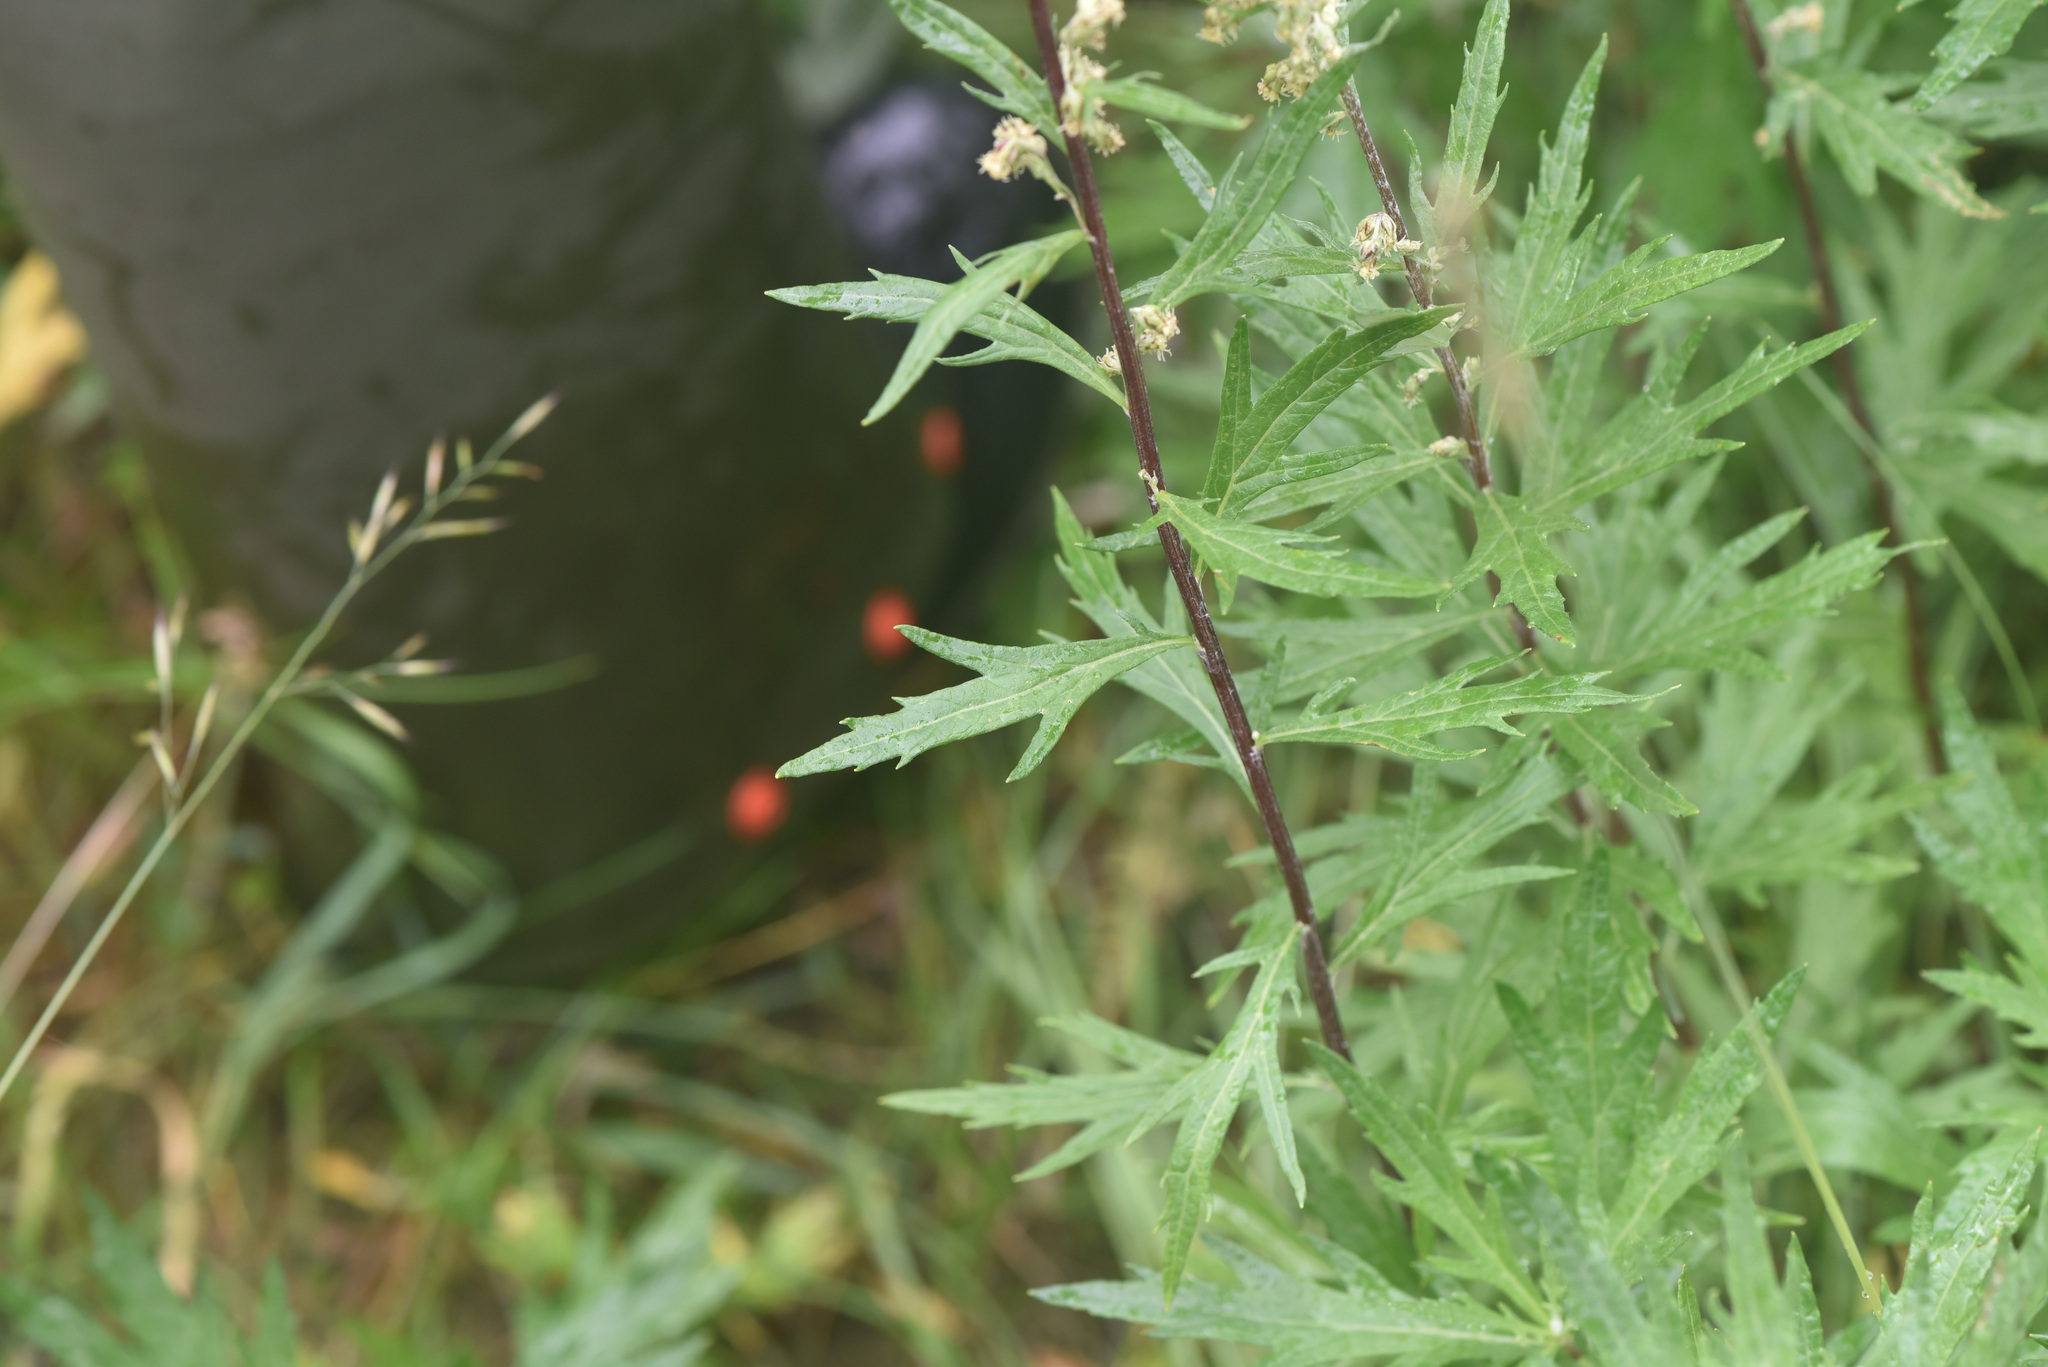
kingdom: Plantae
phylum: Tracheophyta
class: Magnoliopsida
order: Asterales
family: Asteraceae
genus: Artemisia
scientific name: Artemisia tilesii
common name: Aleutian mugwort
